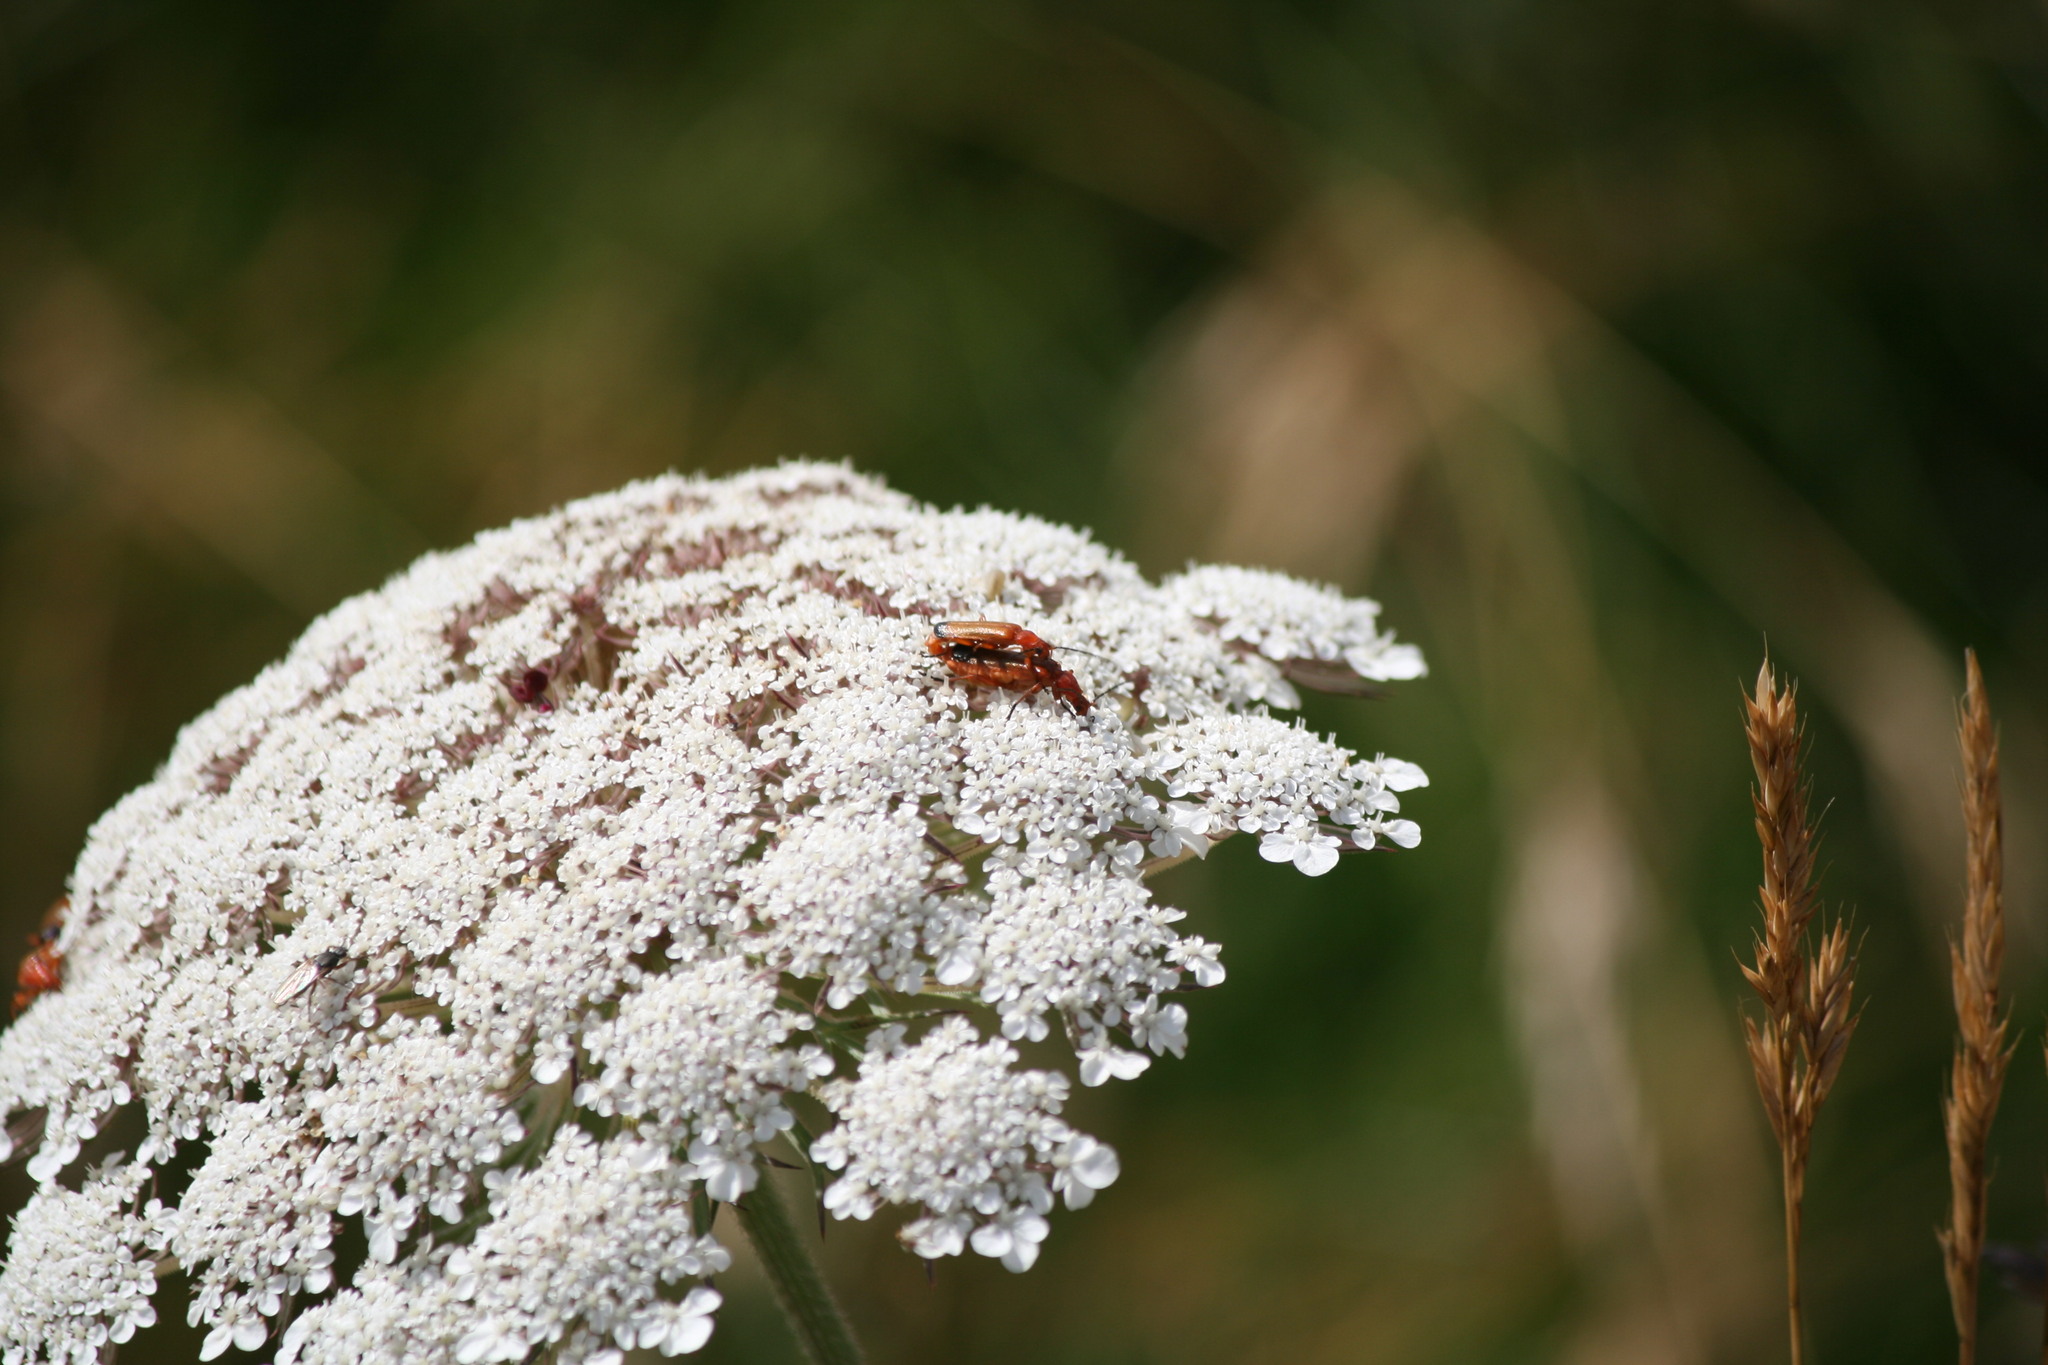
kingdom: Animalia
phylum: Arthropoda
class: Insecta
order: Coleoptera
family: Cantharidae
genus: Rhagonycha
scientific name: Rhagonycha fulva
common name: Common red soldier beetle
